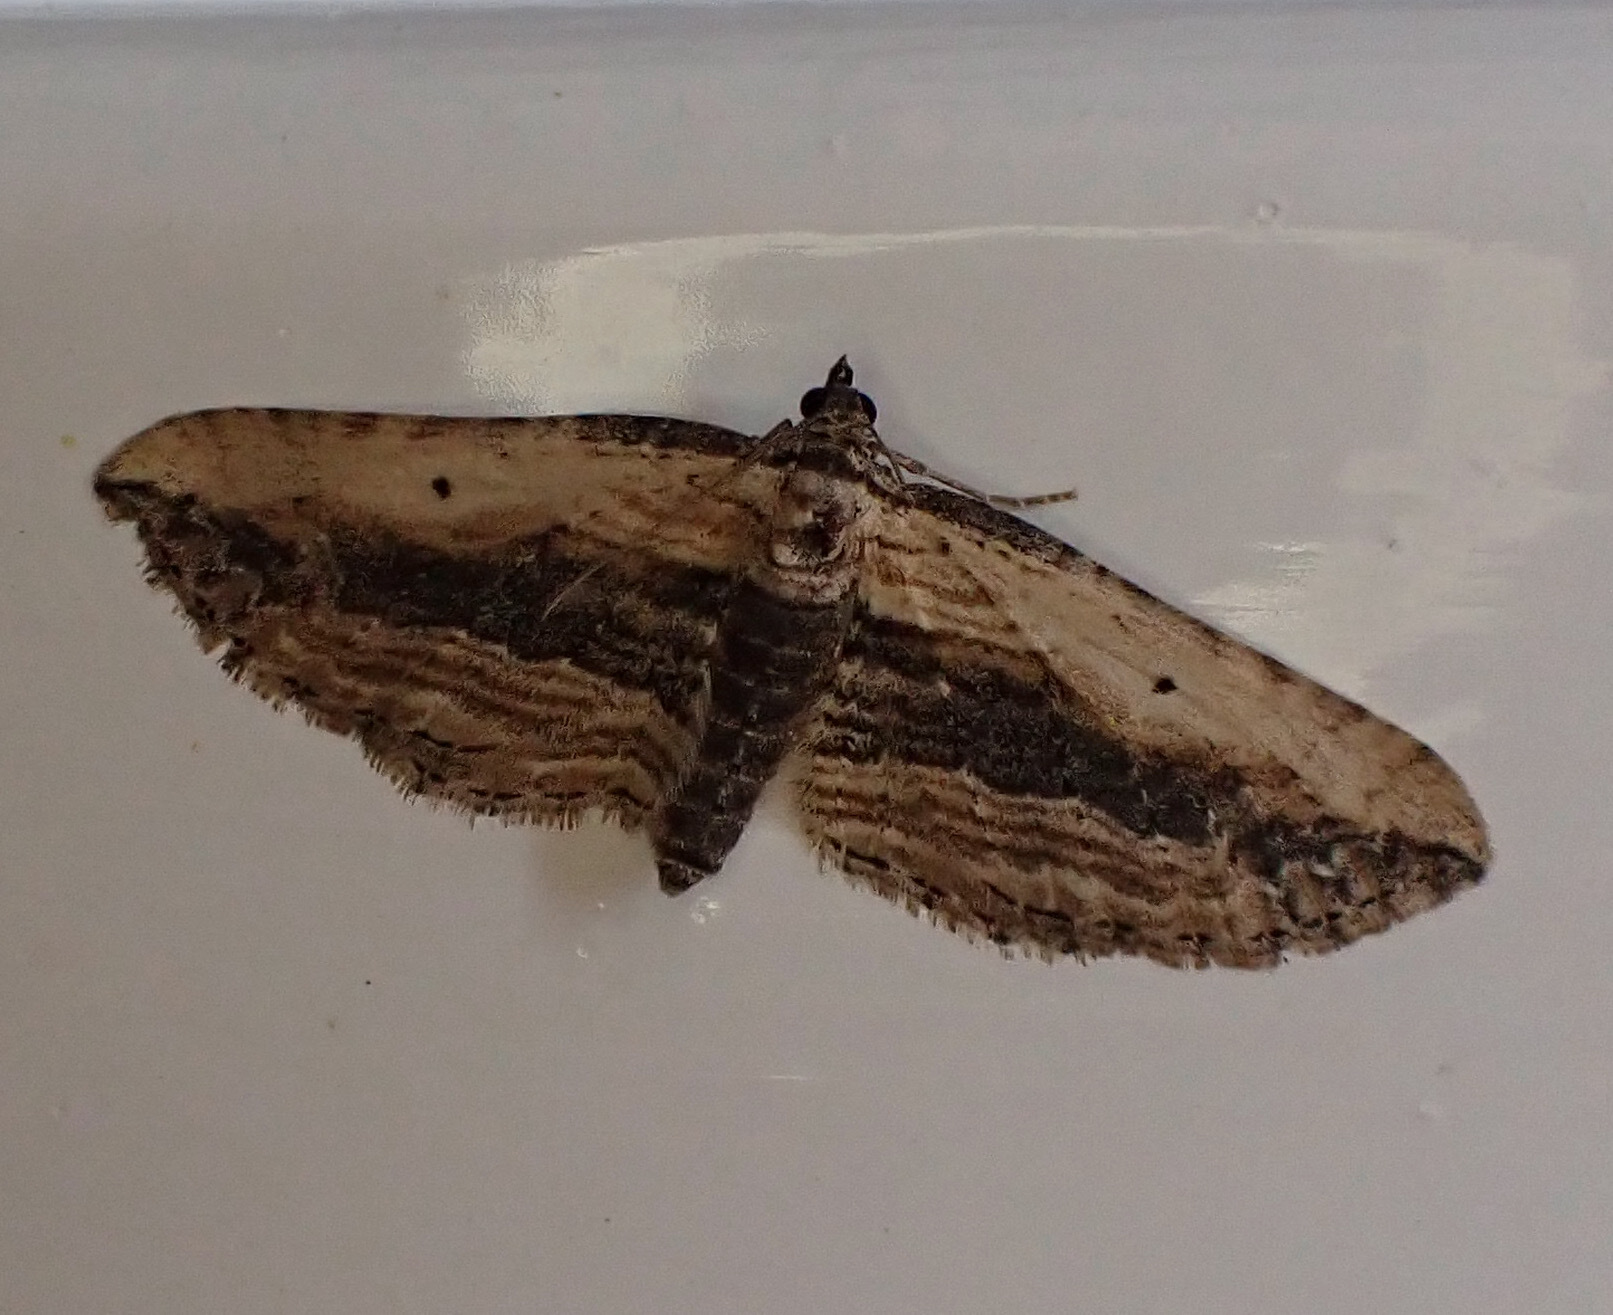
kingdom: Animalia
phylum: Arthropoda
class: Insecta
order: Lepidoptera
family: Geometridae
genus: Horisme
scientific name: Horisme vitalbata
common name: Small waved umber
